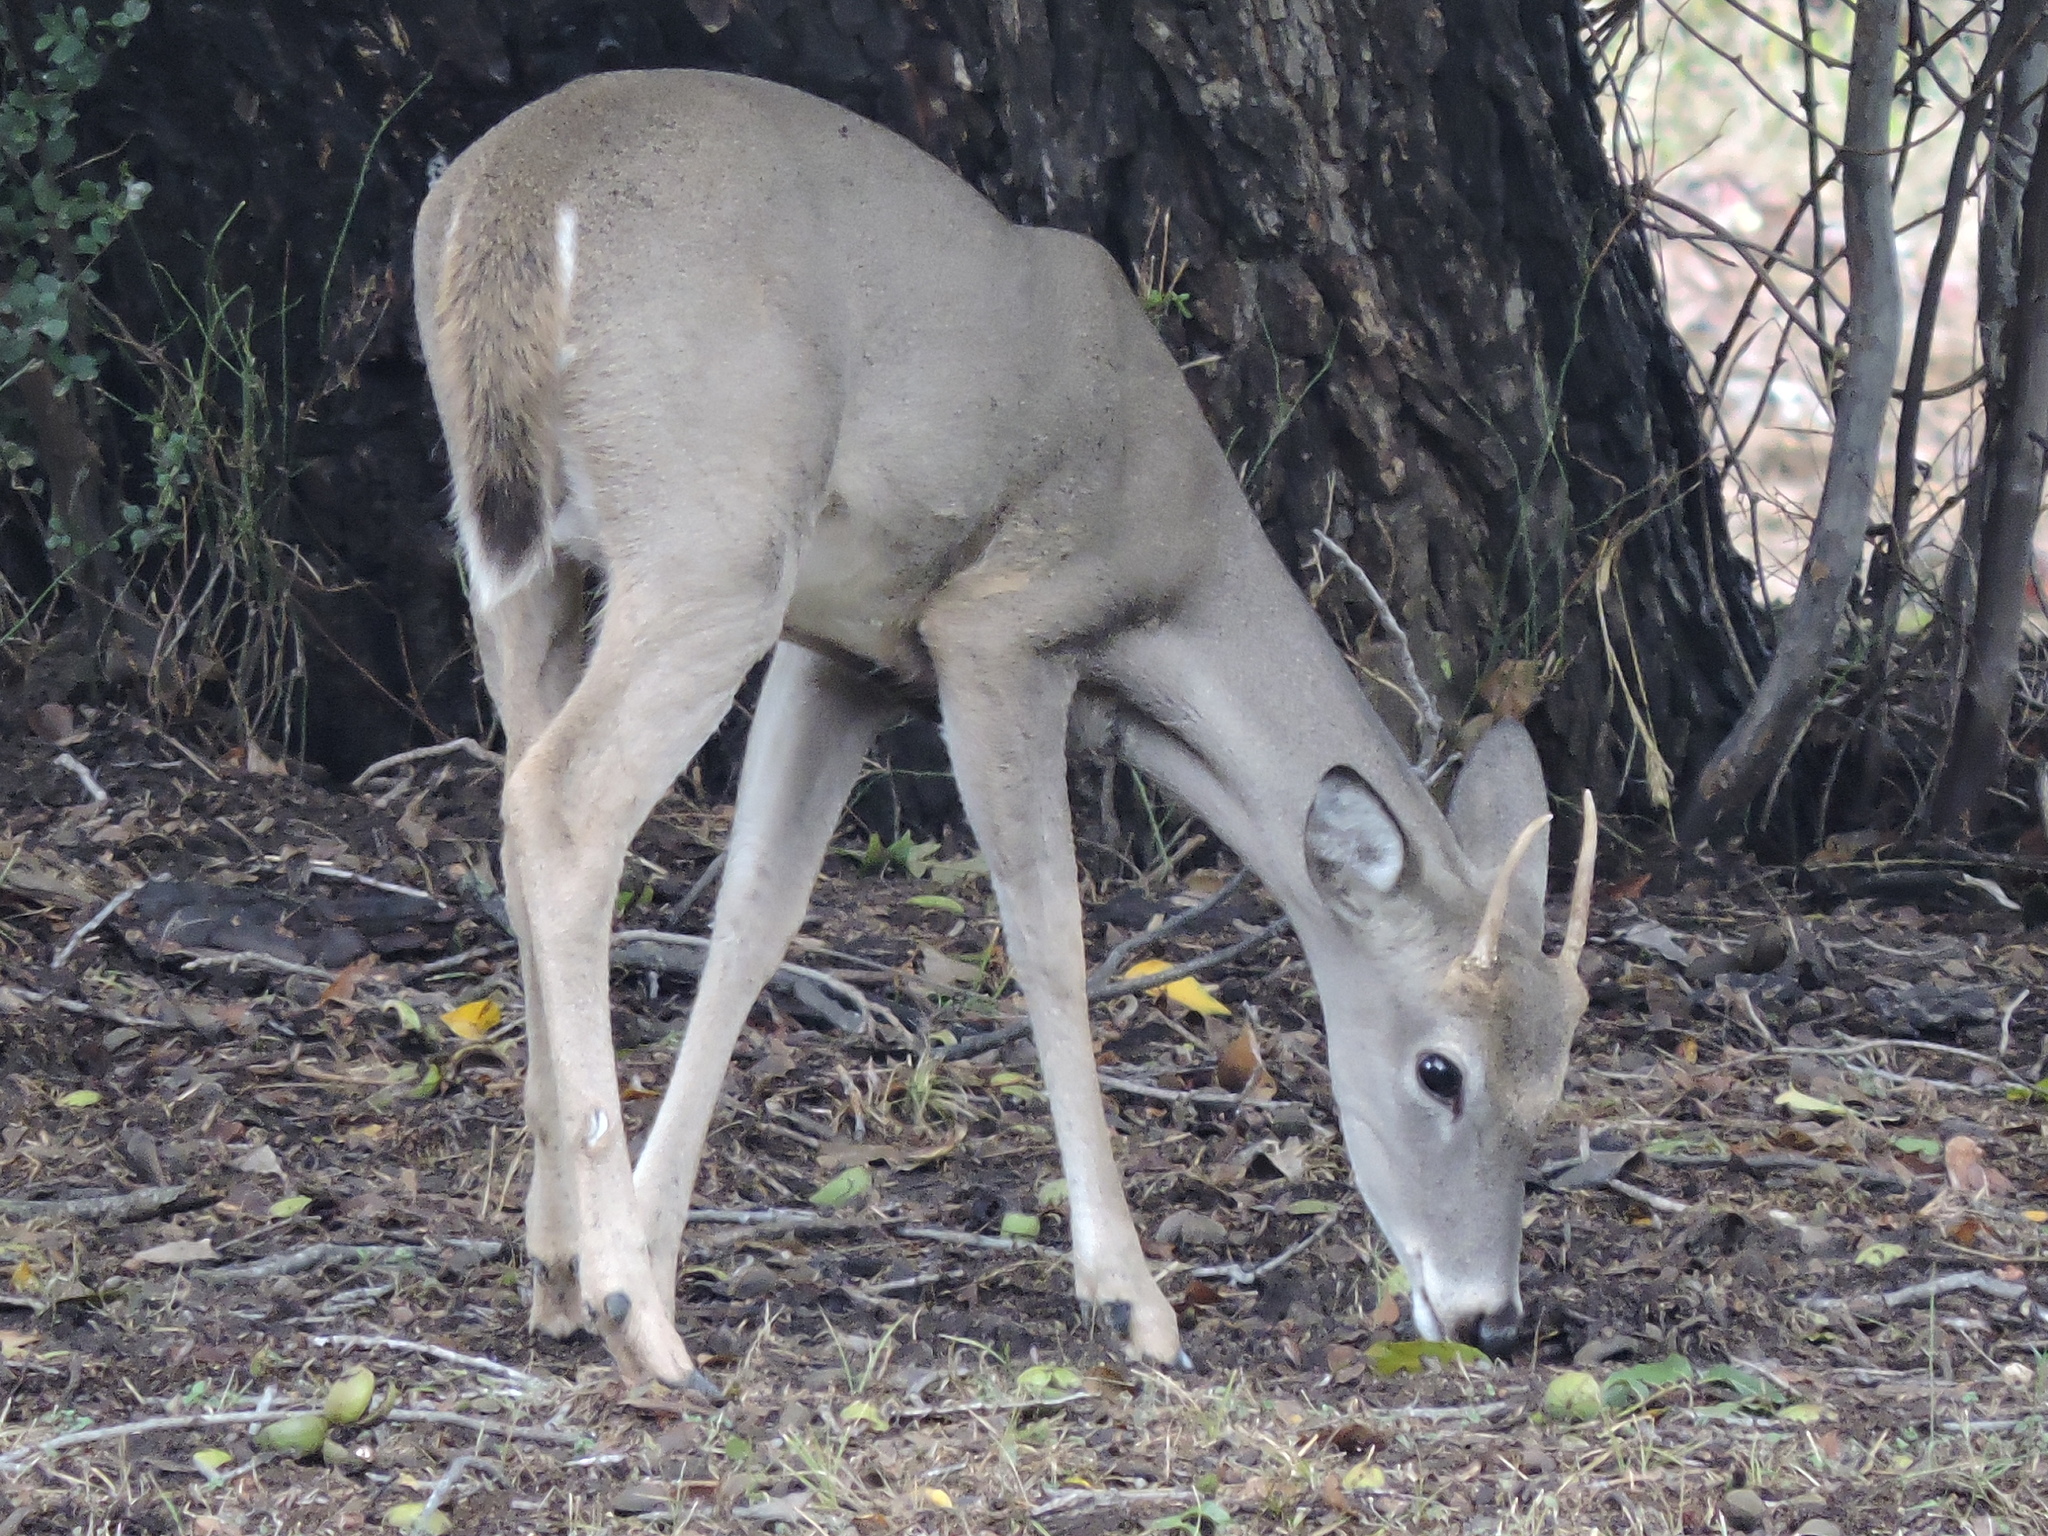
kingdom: Animalia
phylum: Chordata
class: Mammalia
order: Artiodactyla
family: Cervidae
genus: Odocoileus
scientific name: Odocoileus virginianus
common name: White-tailed deer
